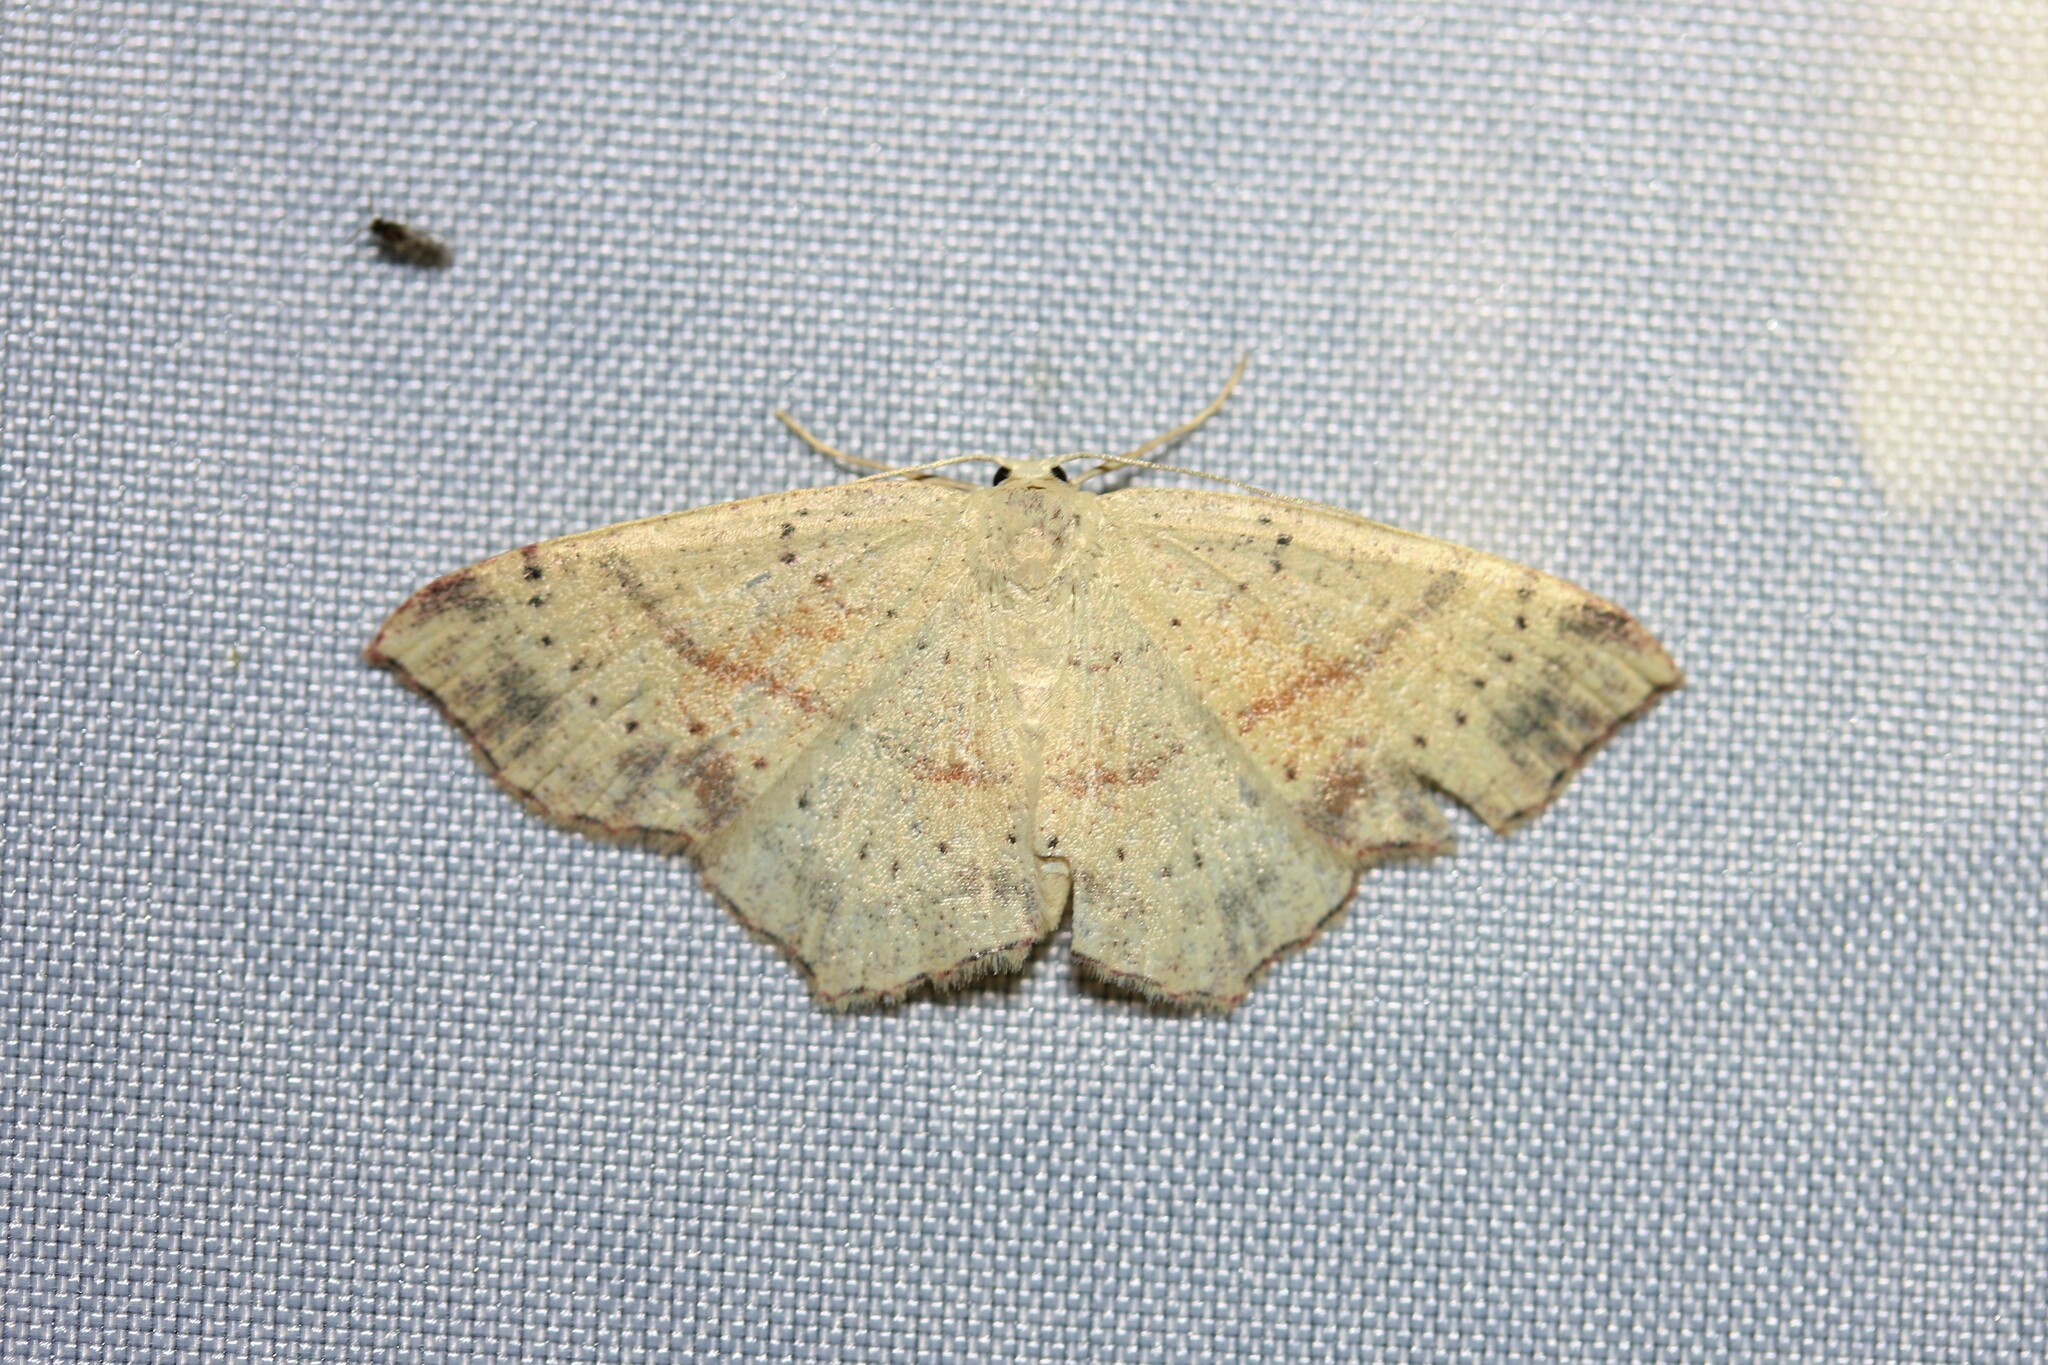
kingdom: Animalia
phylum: Arthropoda
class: Insecta
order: Lepidoptera
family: Geometridae
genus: Cyclophora
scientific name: Cyclophora punctaria
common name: Maiden's blush
